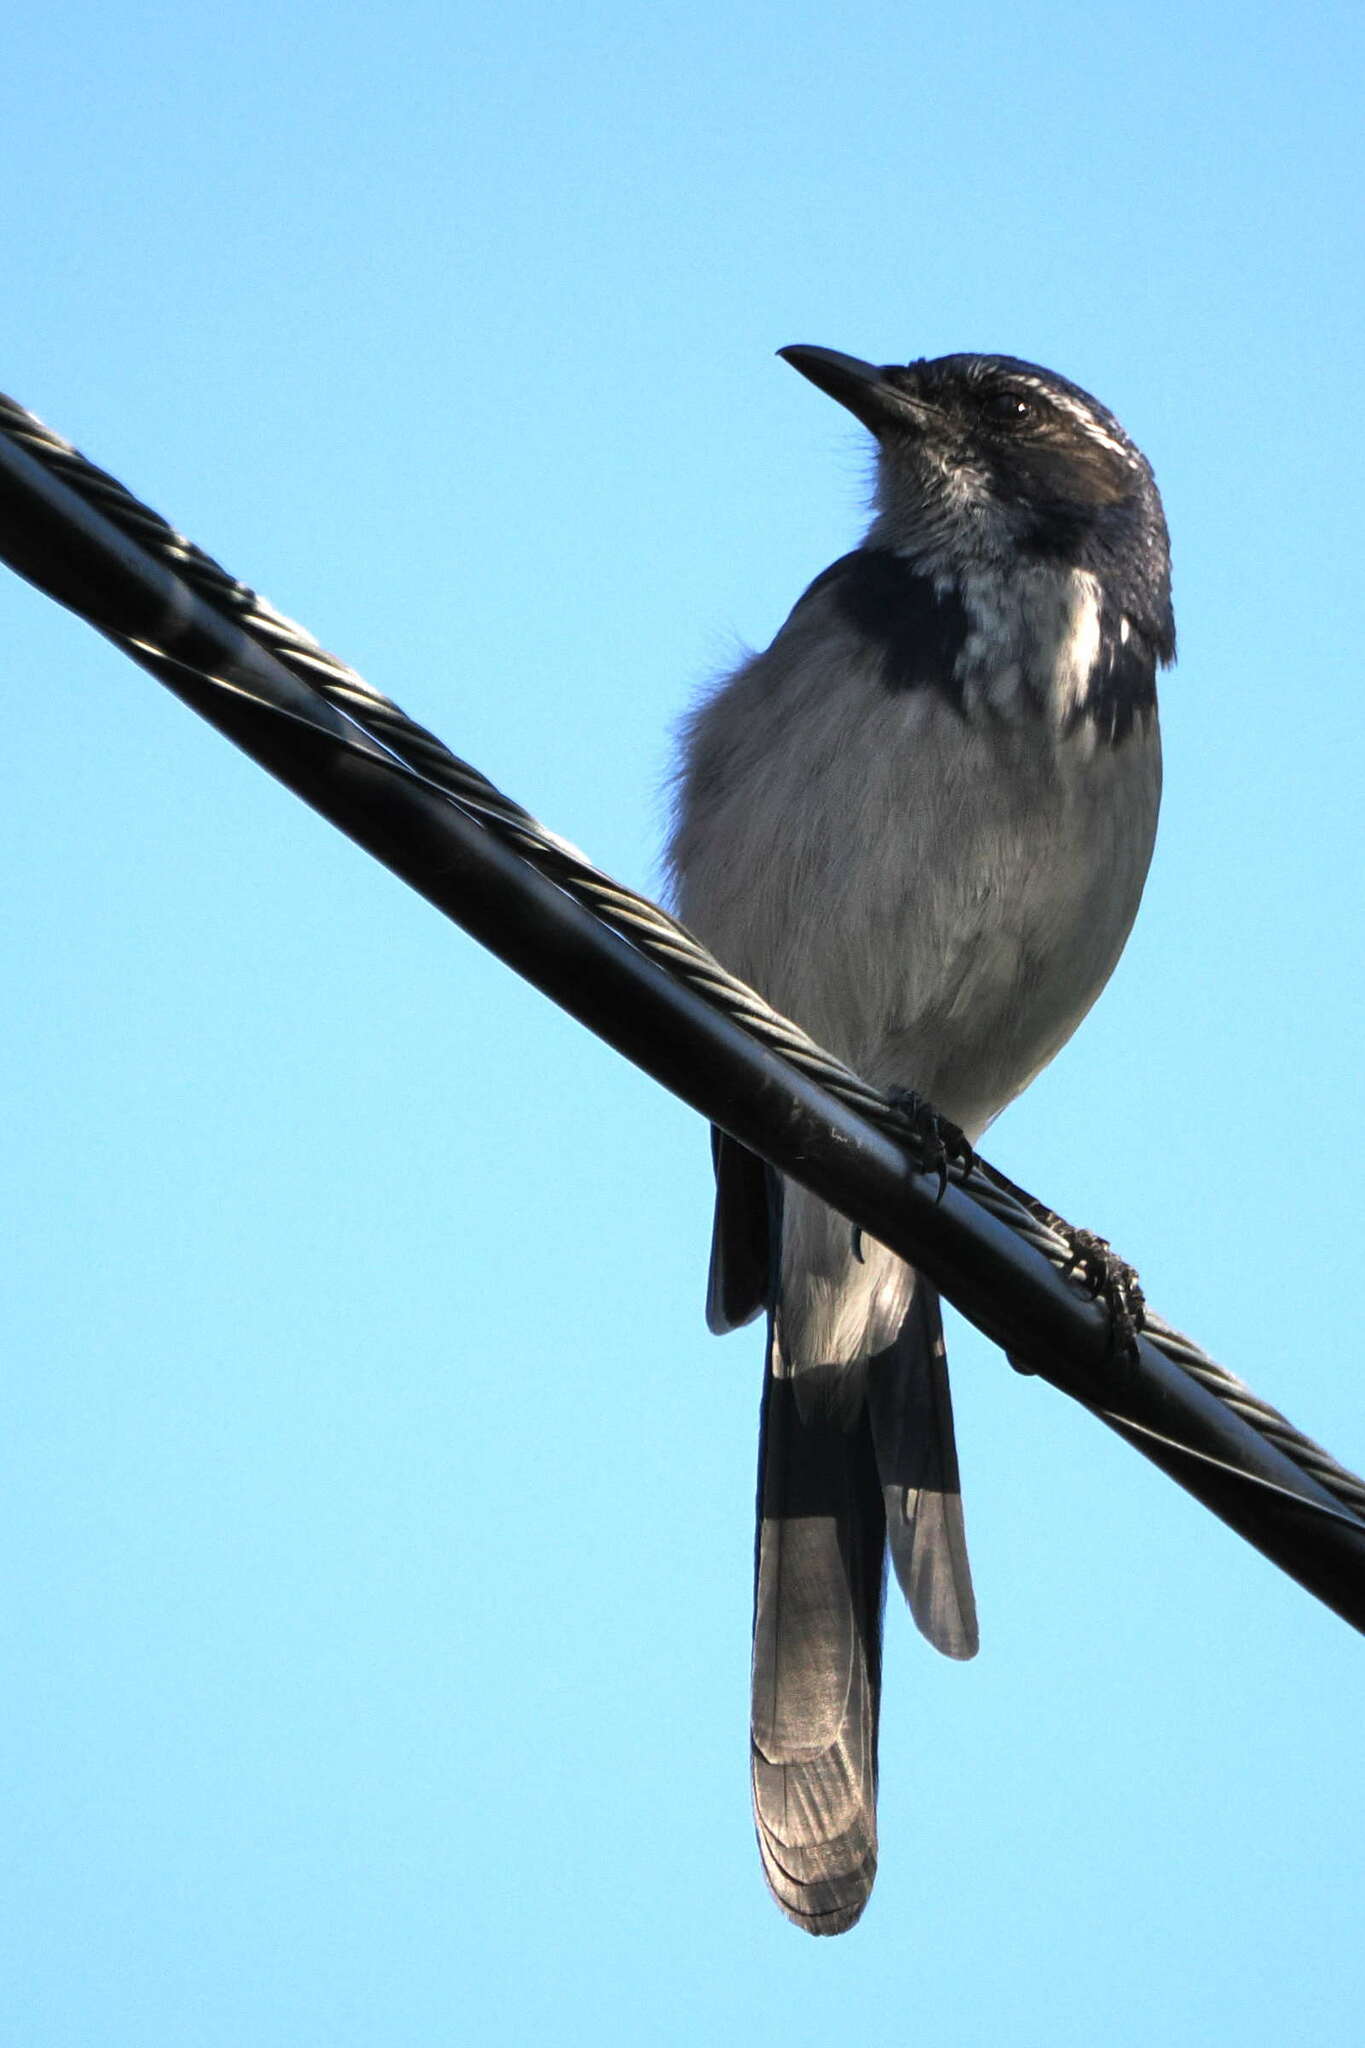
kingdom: Animalia
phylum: Chordata
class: Aves
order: Passeriformes
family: Corvidae
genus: Aphelocoma
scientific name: Aphelocoma californica
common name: California scrub-jay
